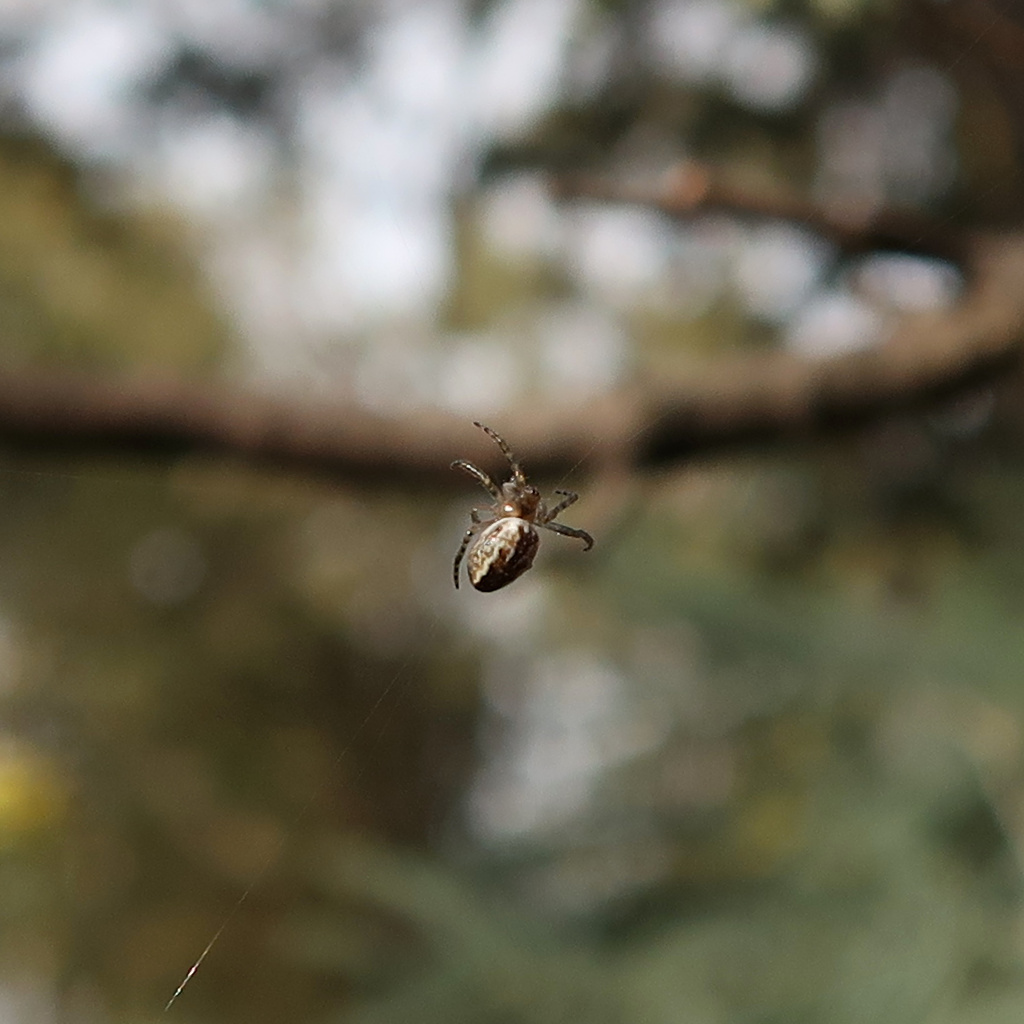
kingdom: Animalia
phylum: Arthropoda
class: Arachnida
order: Araneae
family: Araneidae
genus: Plebs
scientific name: Plebs bradleyi
